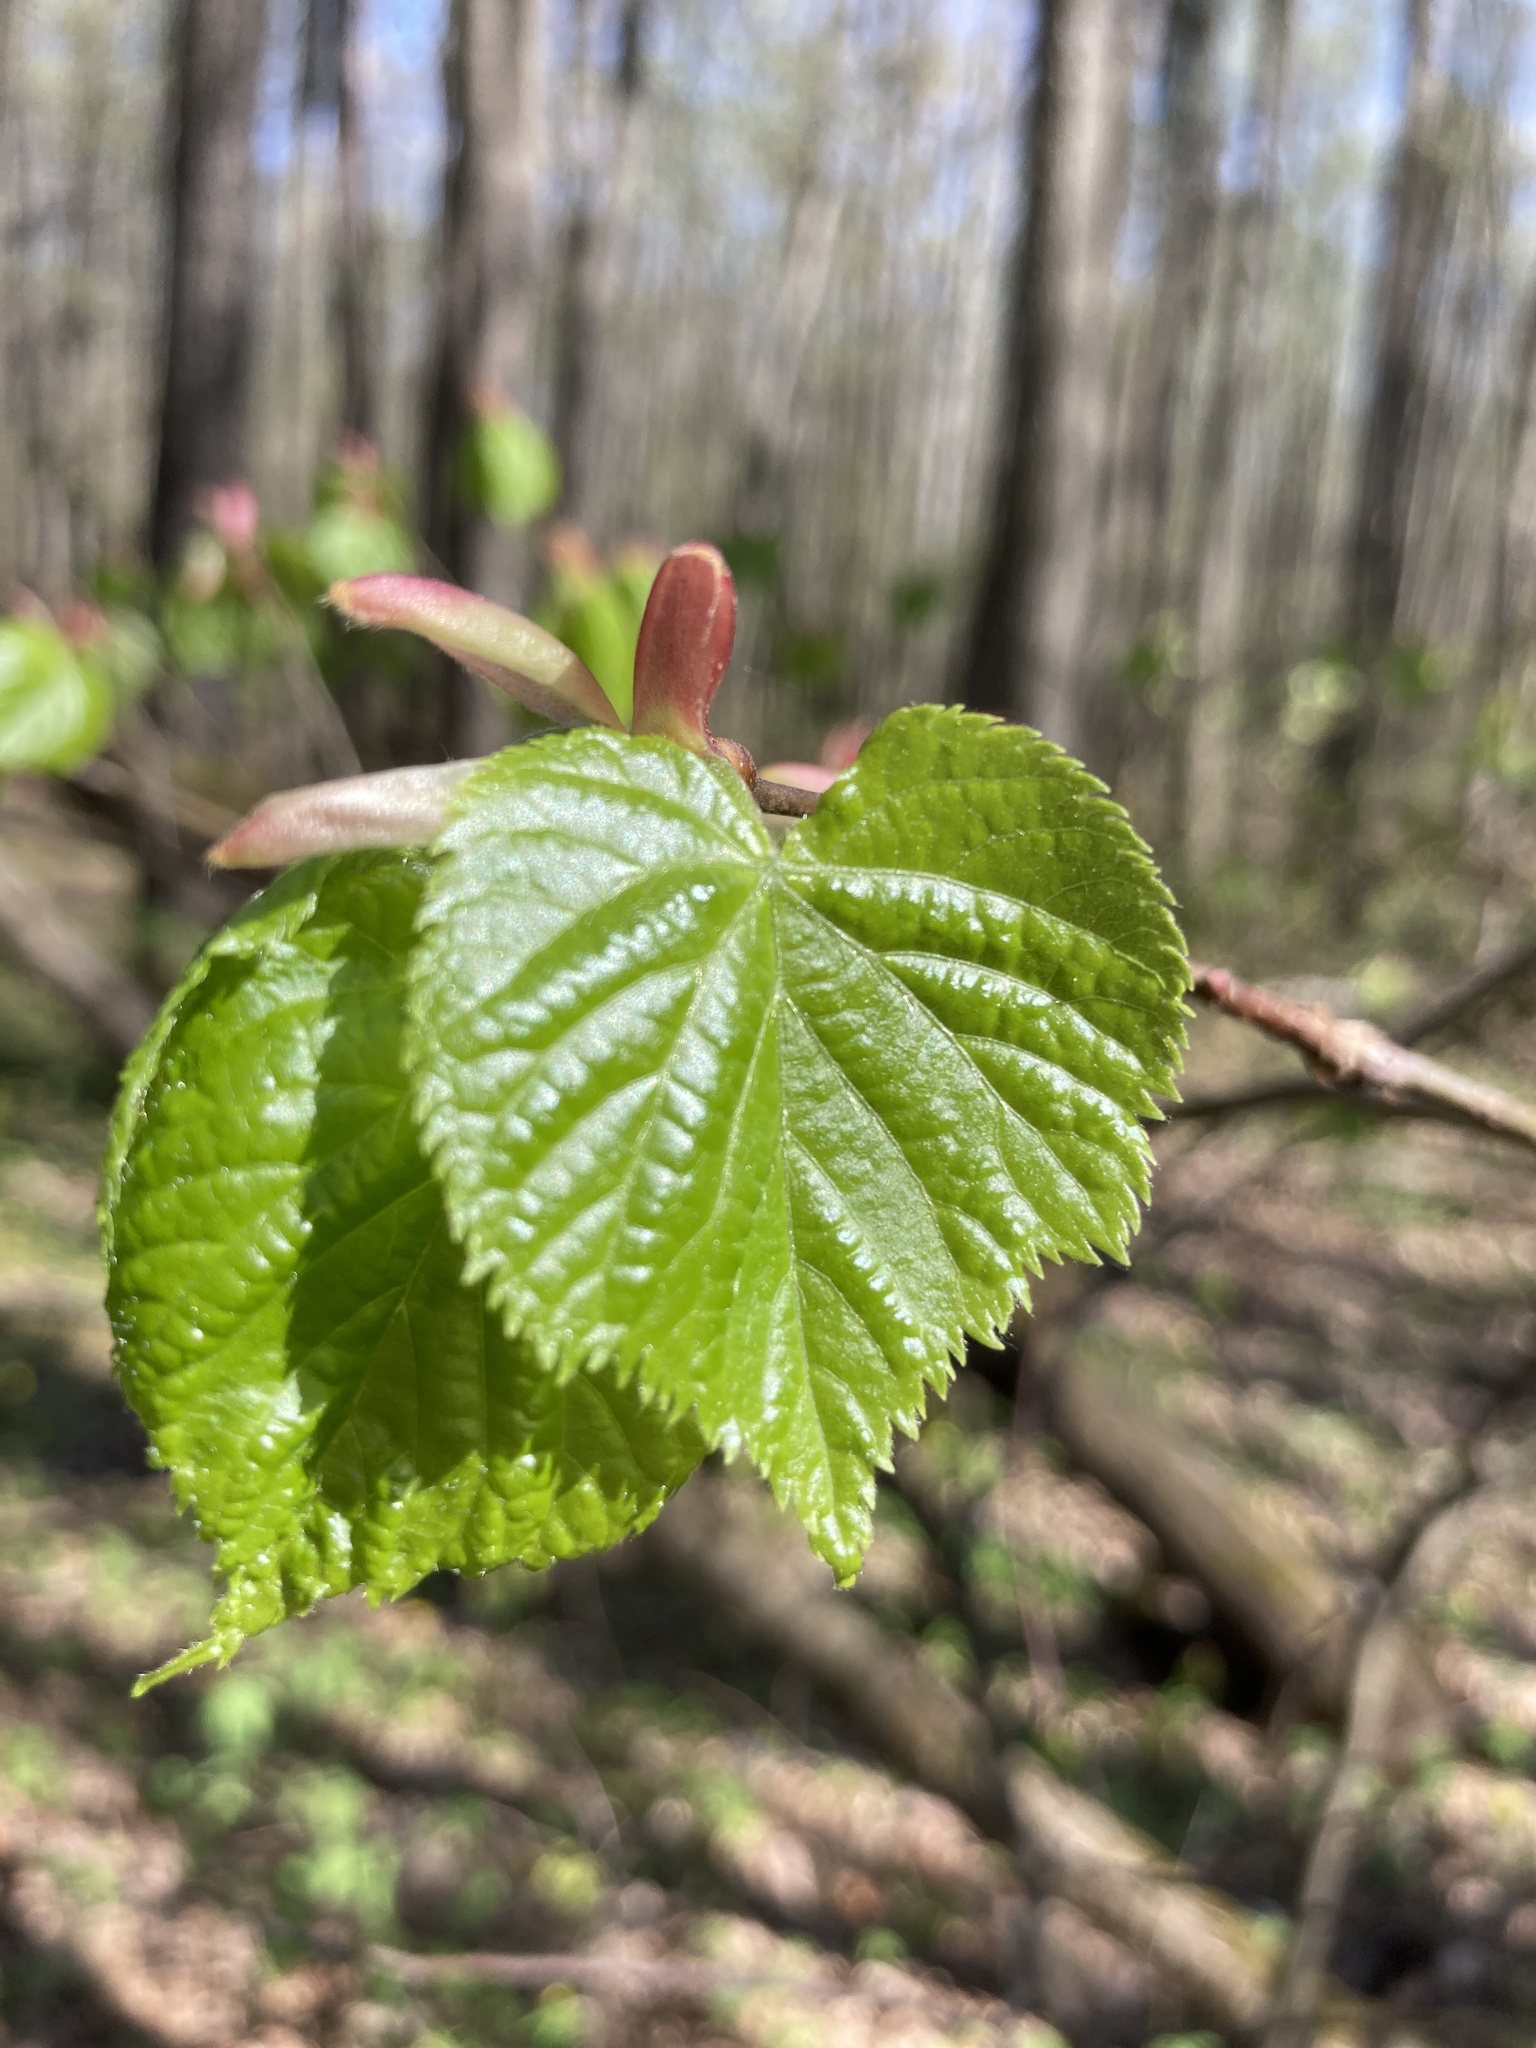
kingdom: Plantae
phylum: Tracheophyta
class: Magnoliopsida
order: Malvales
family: Malvaceae
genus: Tilia
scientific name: Tilia cordata
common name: Small-leaved lime
